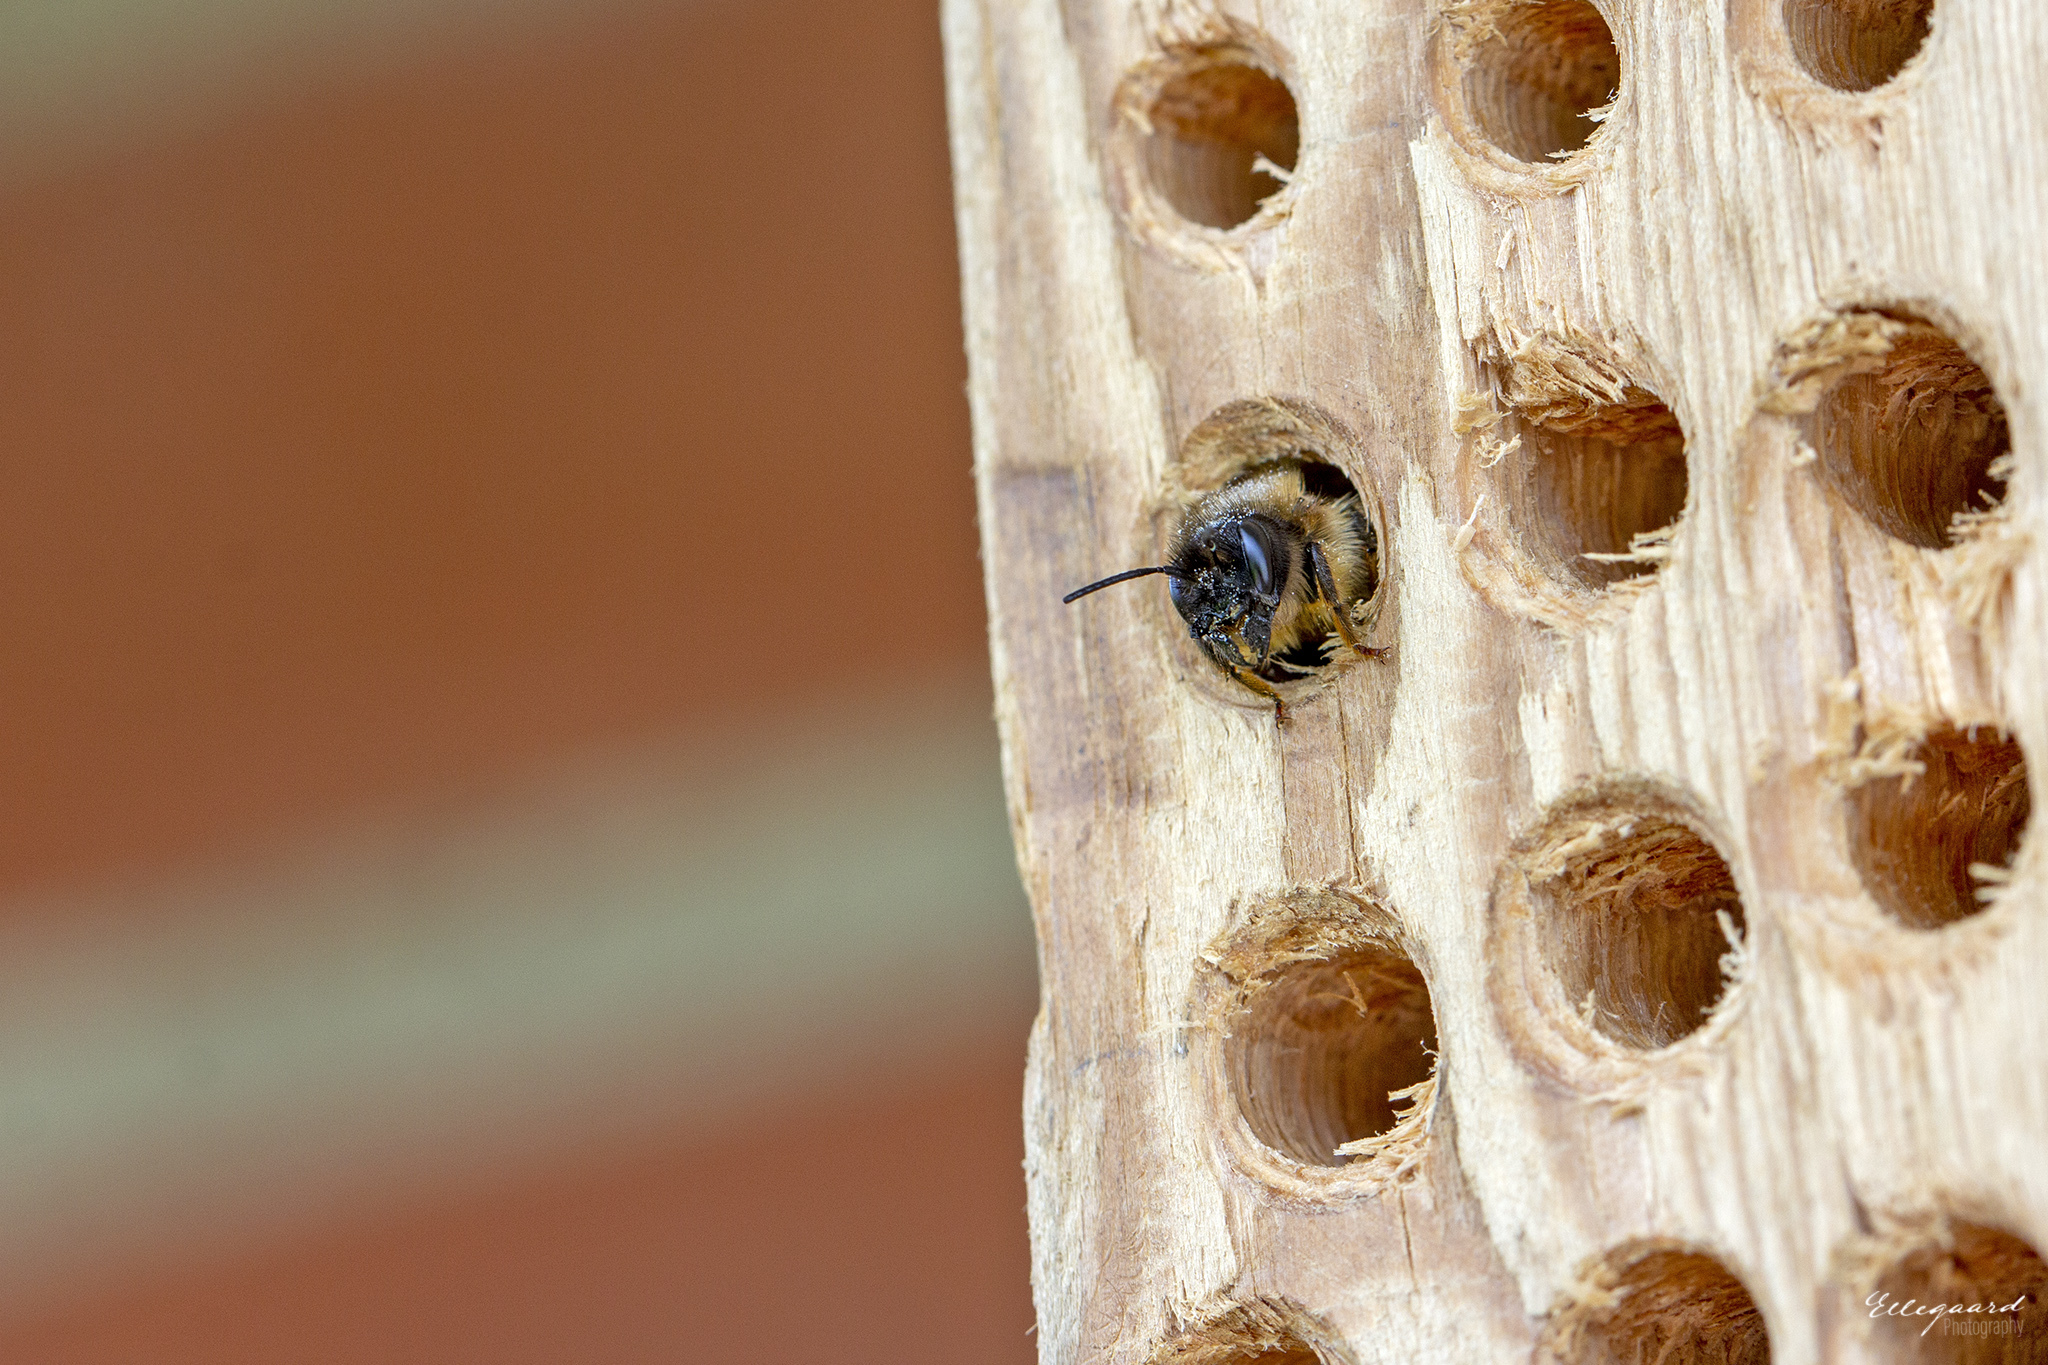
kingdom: Animalia
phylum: Arthropoda
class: Insecta
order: Hymenoptera
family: Megachilidae
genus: Osmia
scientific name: Osmia bicornis
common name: Red mason bee
